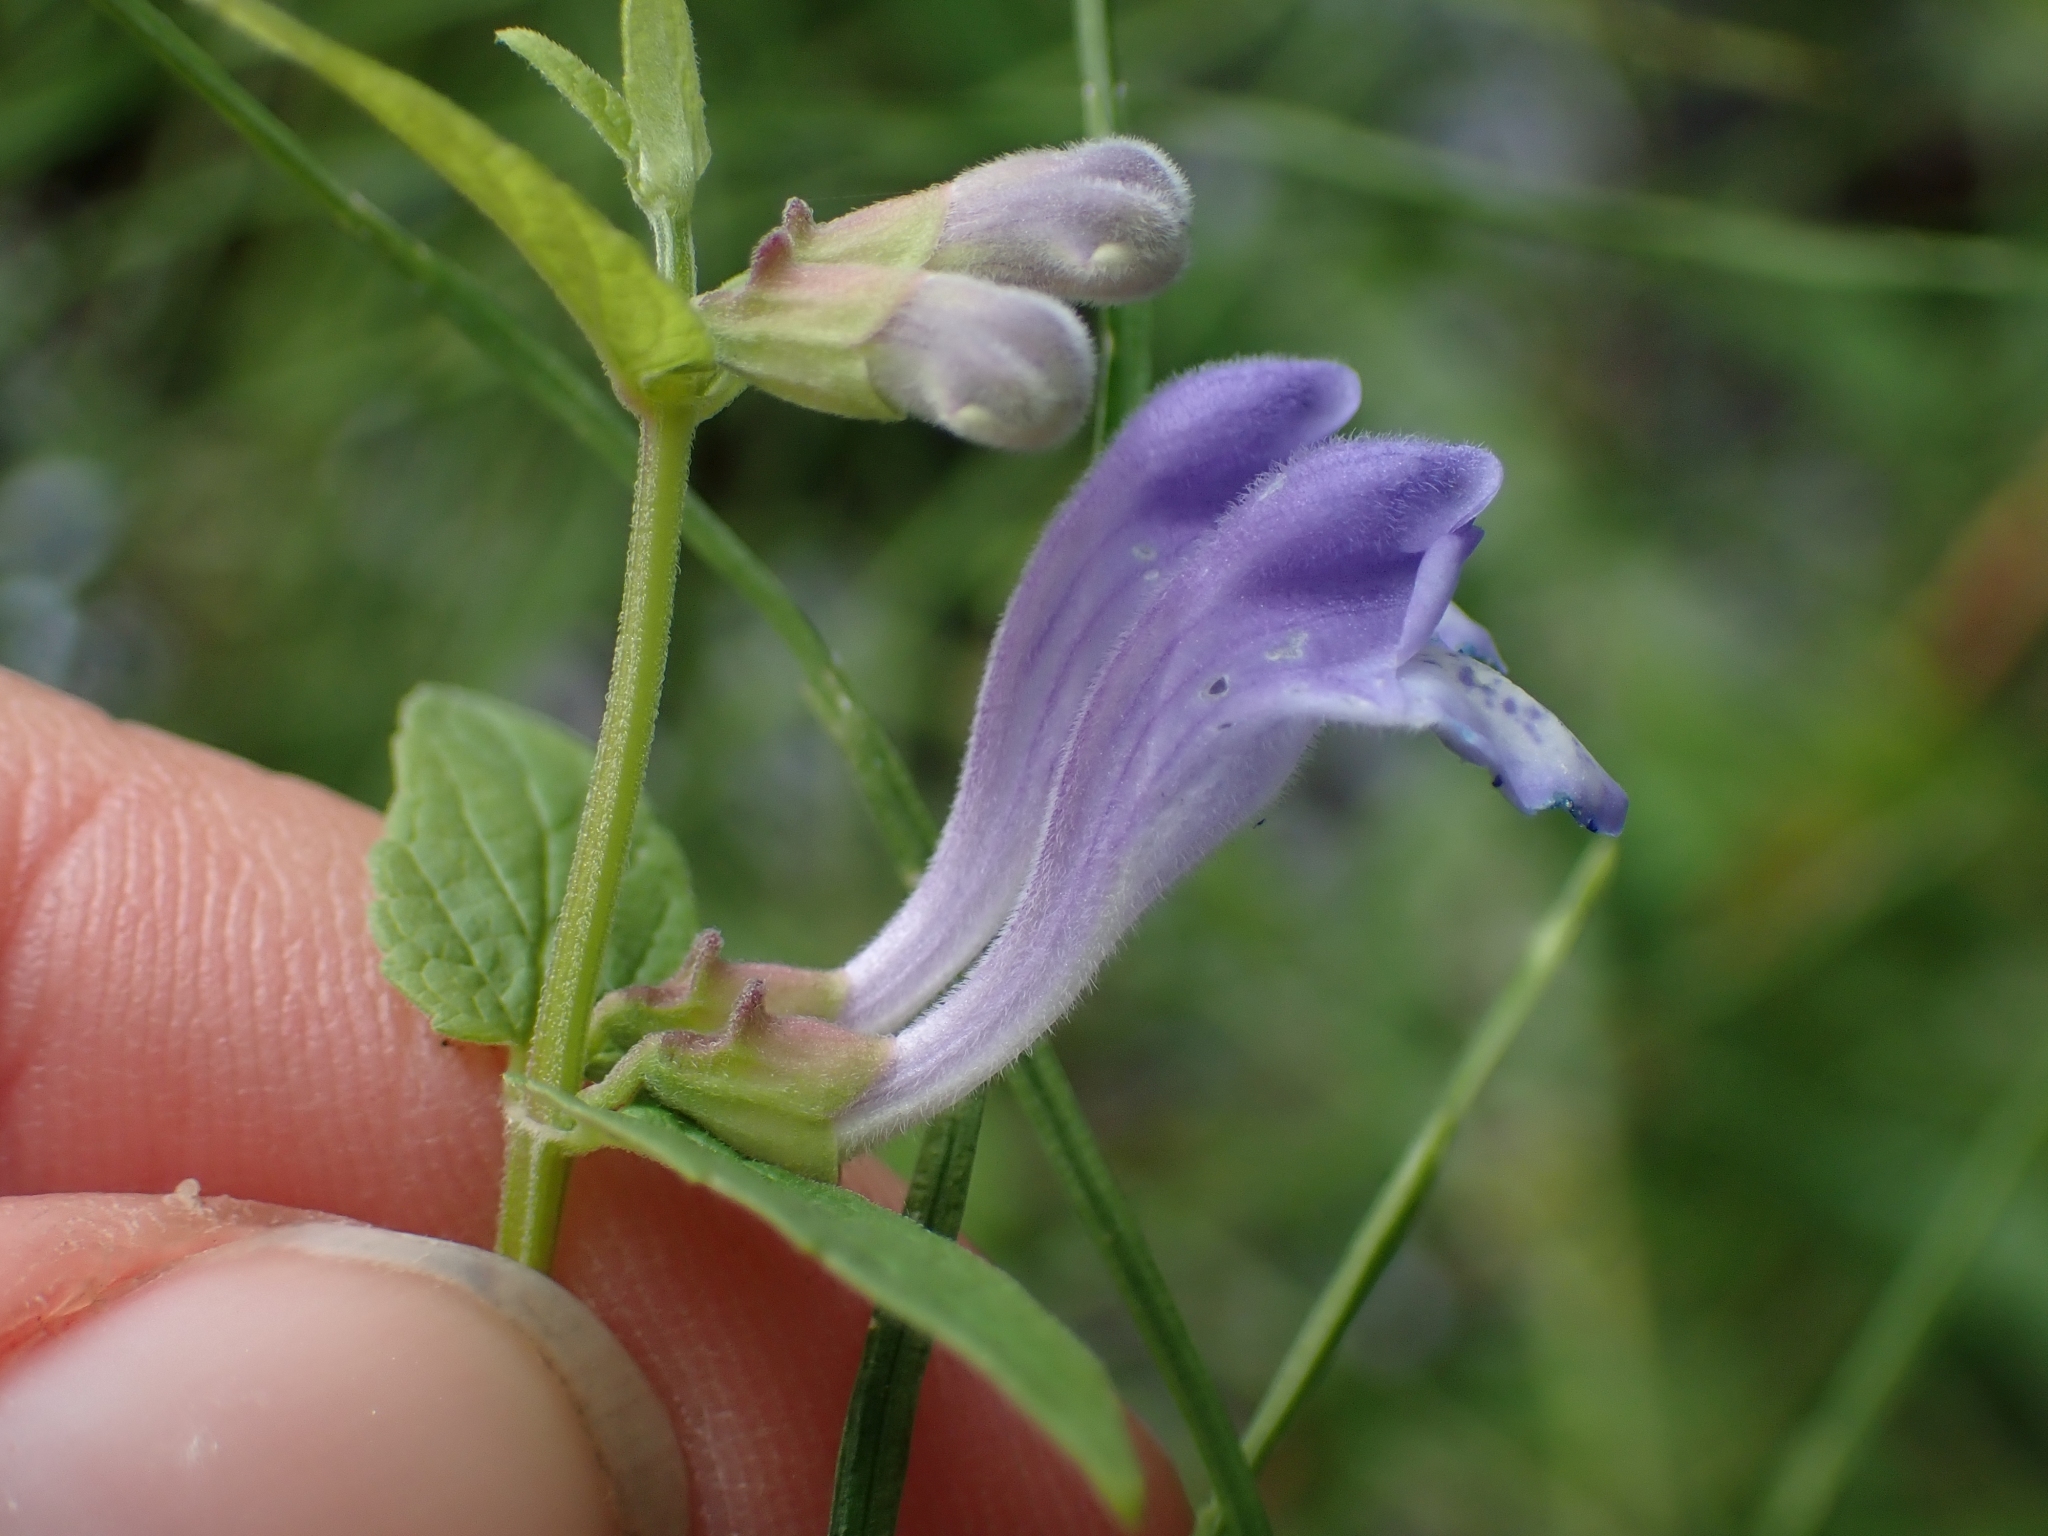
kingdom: Plantae
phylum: Tracheophyta
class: Magnoliopsida
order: Lamiales
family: Lamiaceae
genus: Scutellaria
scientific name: Scutellaria galericulata
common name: Skullcap
